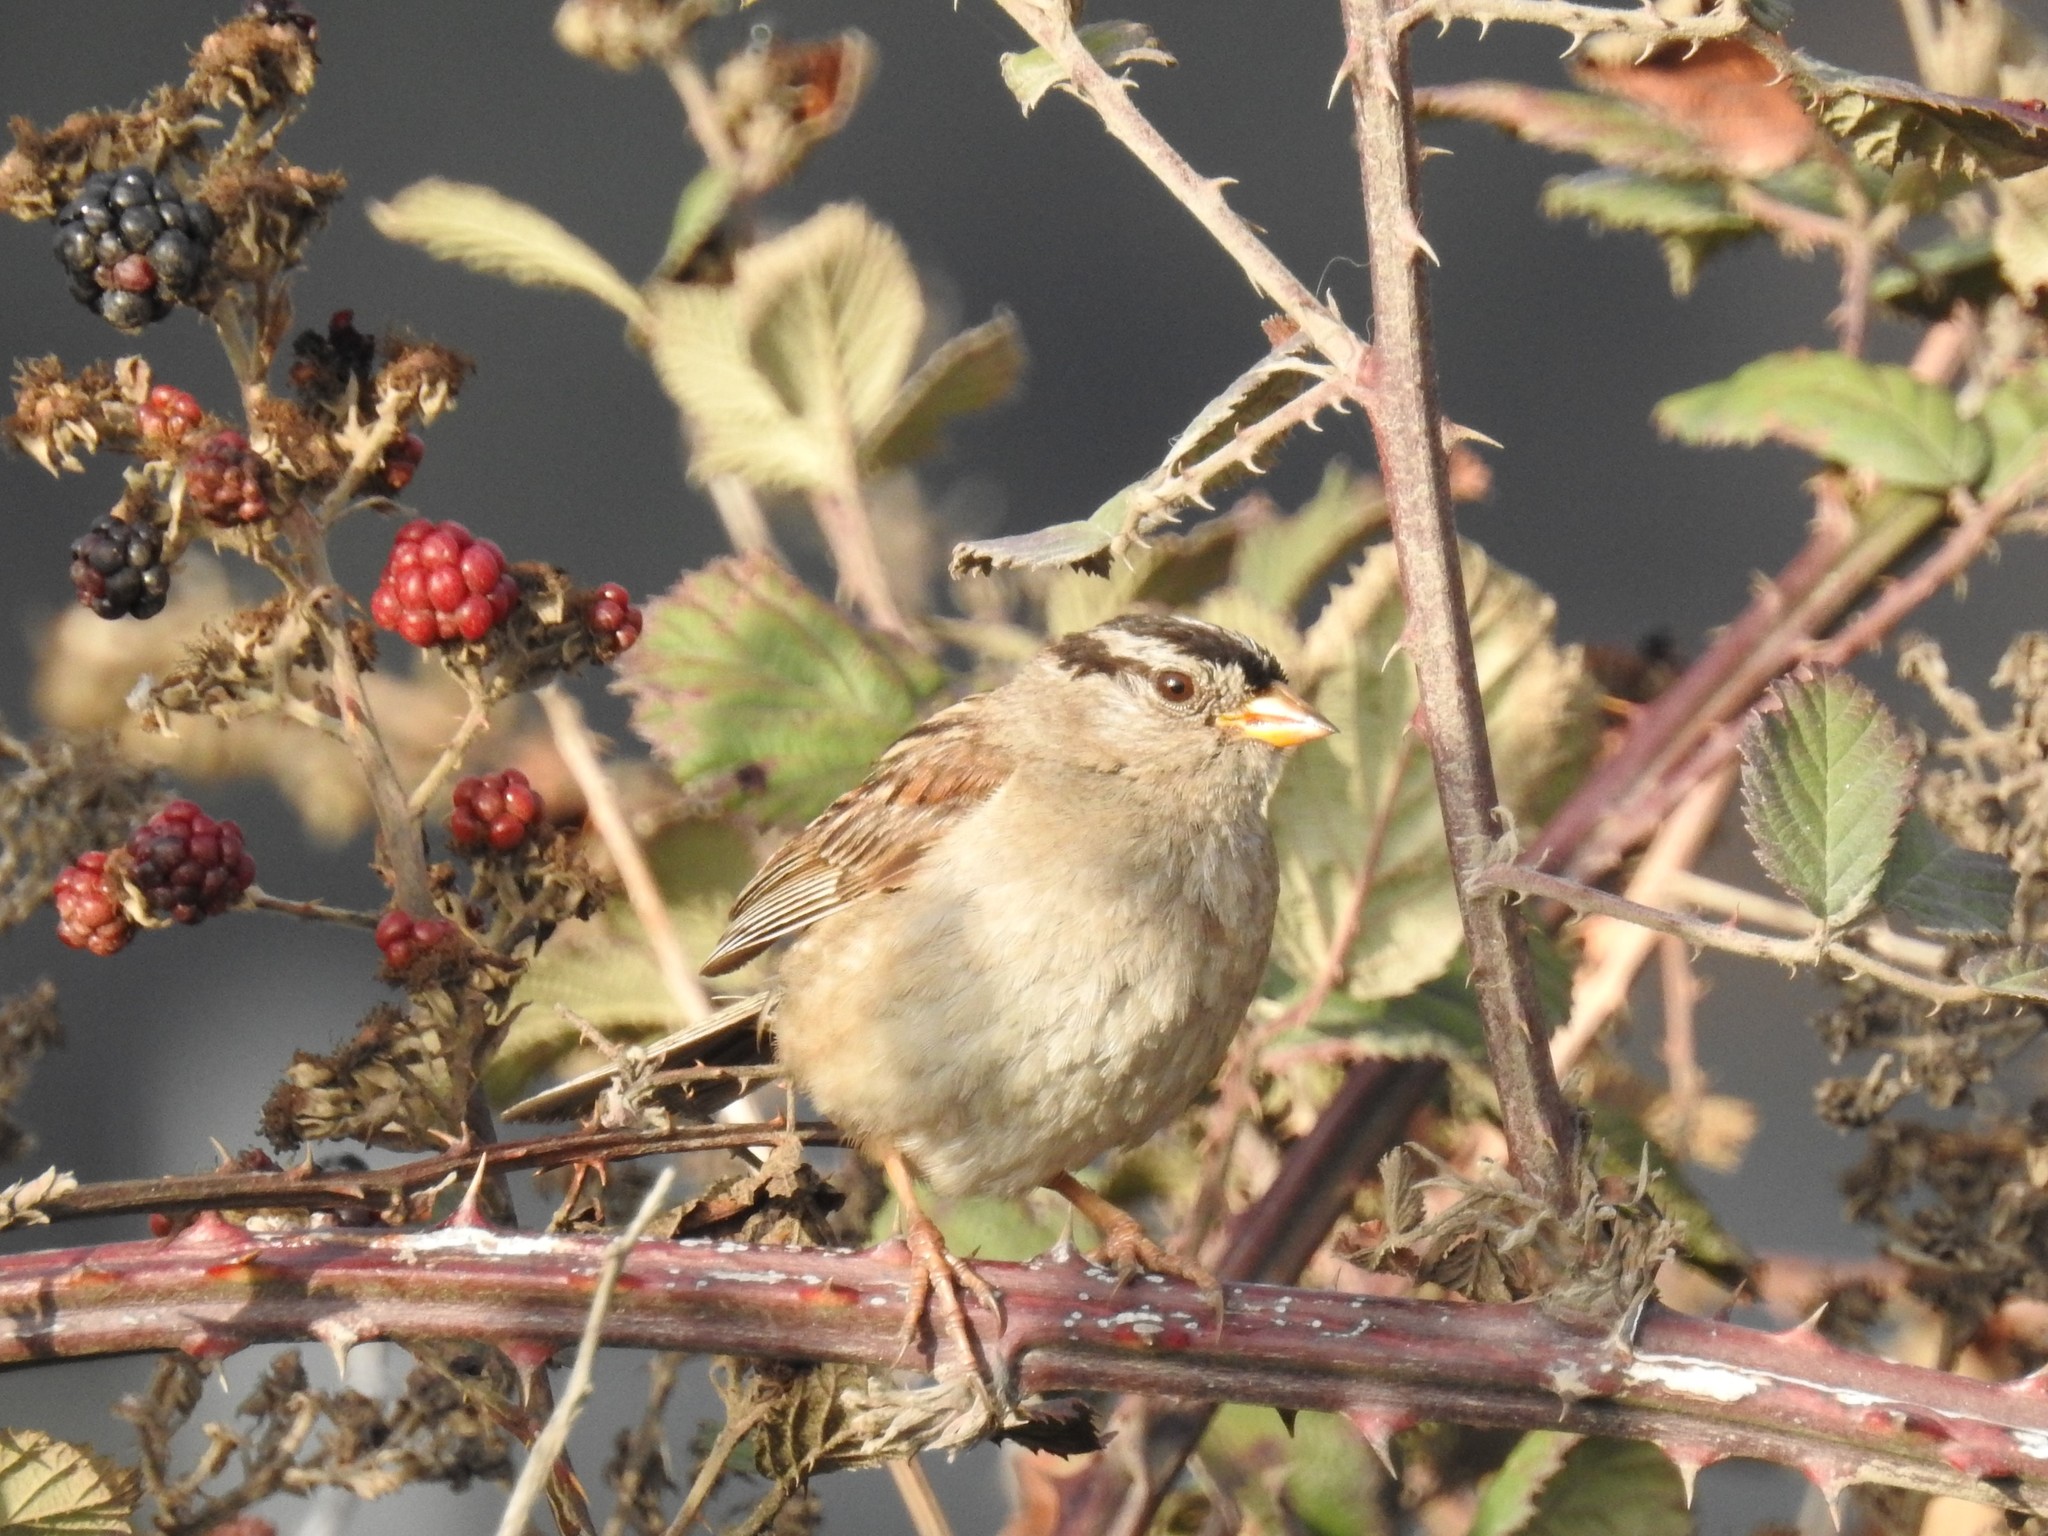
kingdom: Animalia
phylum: Chordata
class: Aves
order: Passeriformes
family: Passerellidae
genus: Zonotrichia
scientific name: Zonotrichia leucophrys
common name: White-crowned sparrow
